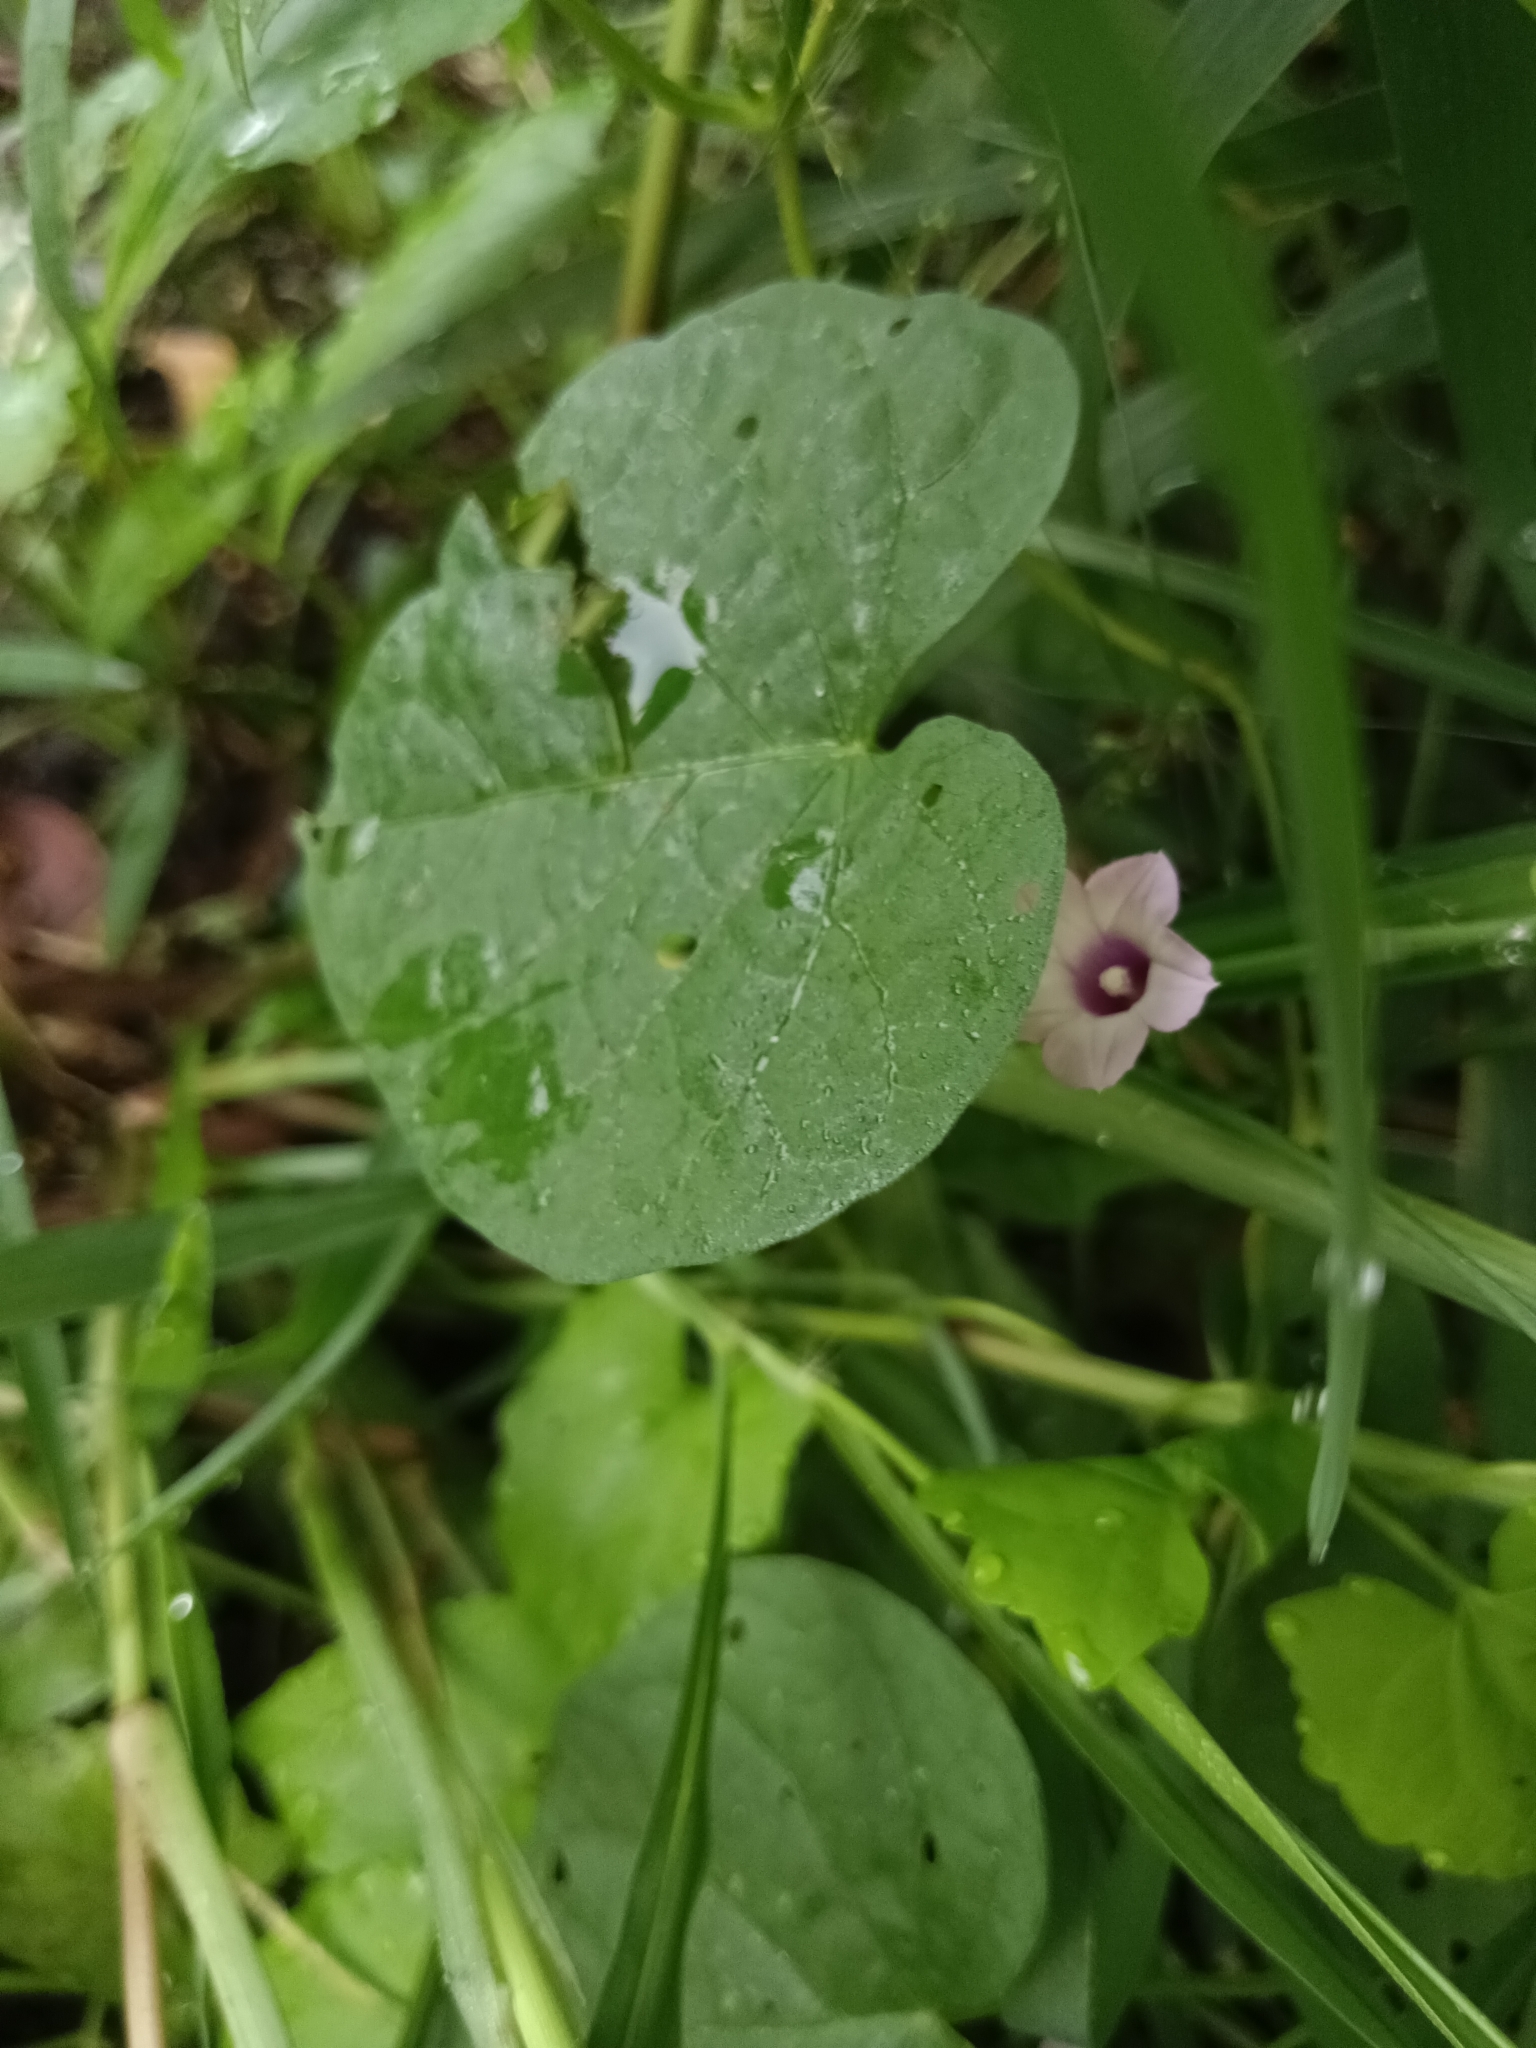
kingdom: Plantae
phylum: Tracheophyta
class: Magnoliopsida
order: Solanales
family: Convolvulaceae
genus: Ipomoea
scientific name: Ipomoea triloba
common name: Little-bell
